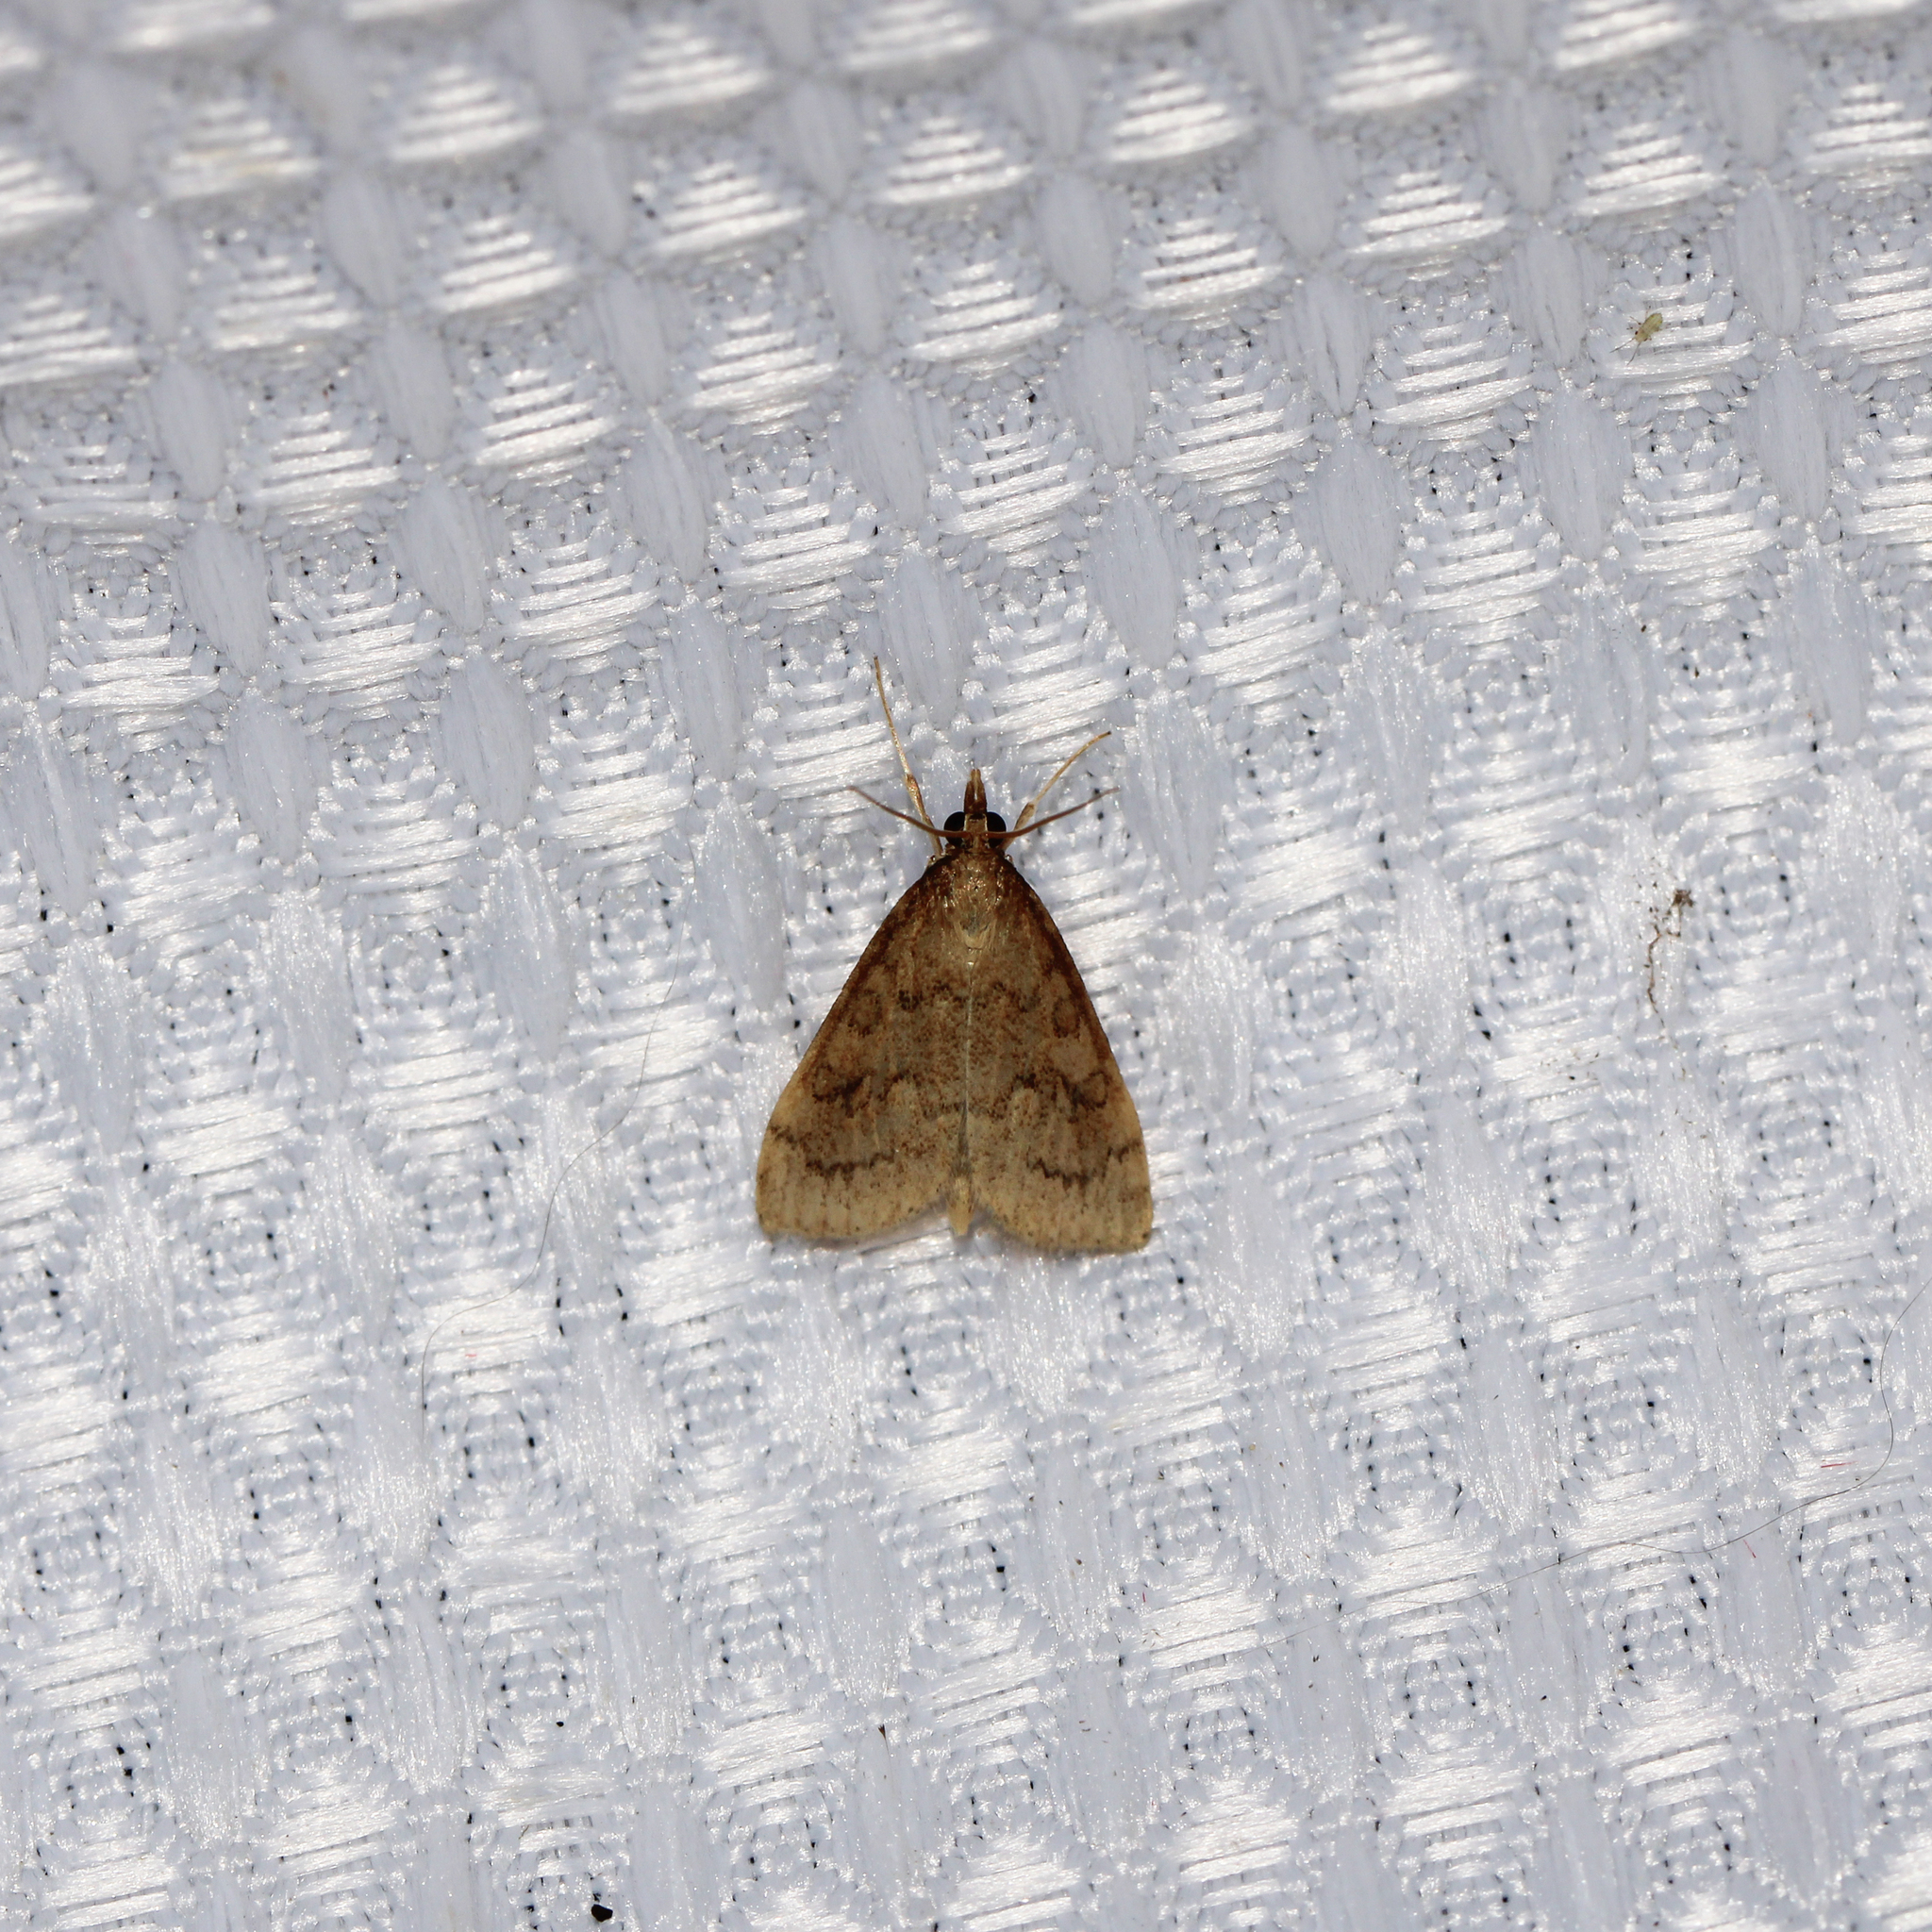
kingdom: Animalia
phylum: Arthropoda
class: Insecta
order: Lepidoptera
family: Crambidae
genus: Udea
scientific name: Udea rubigalis
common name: Celery leaftier moth
